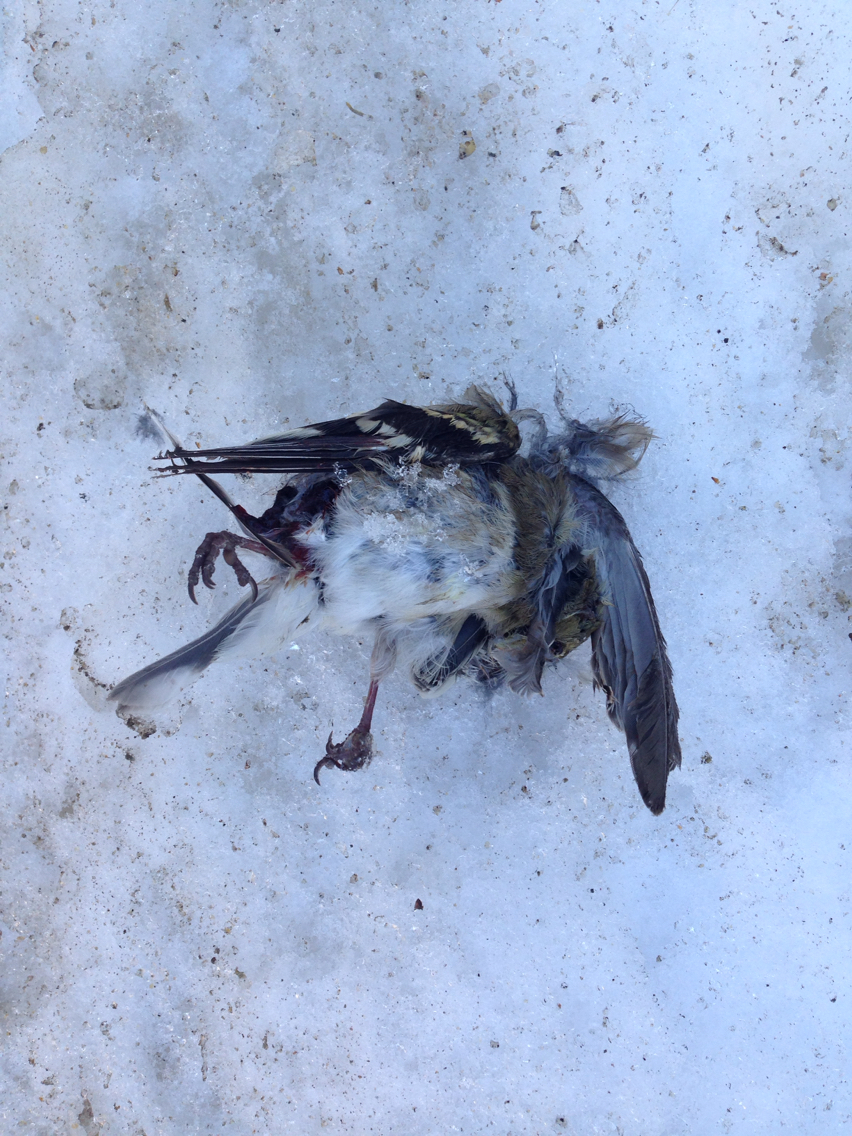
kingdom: Animalia
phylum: Chordata
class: Aves
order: Passeriformes
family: Fringillidae
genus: Spinus
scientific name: Spinus tristis
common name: American goldfinch
